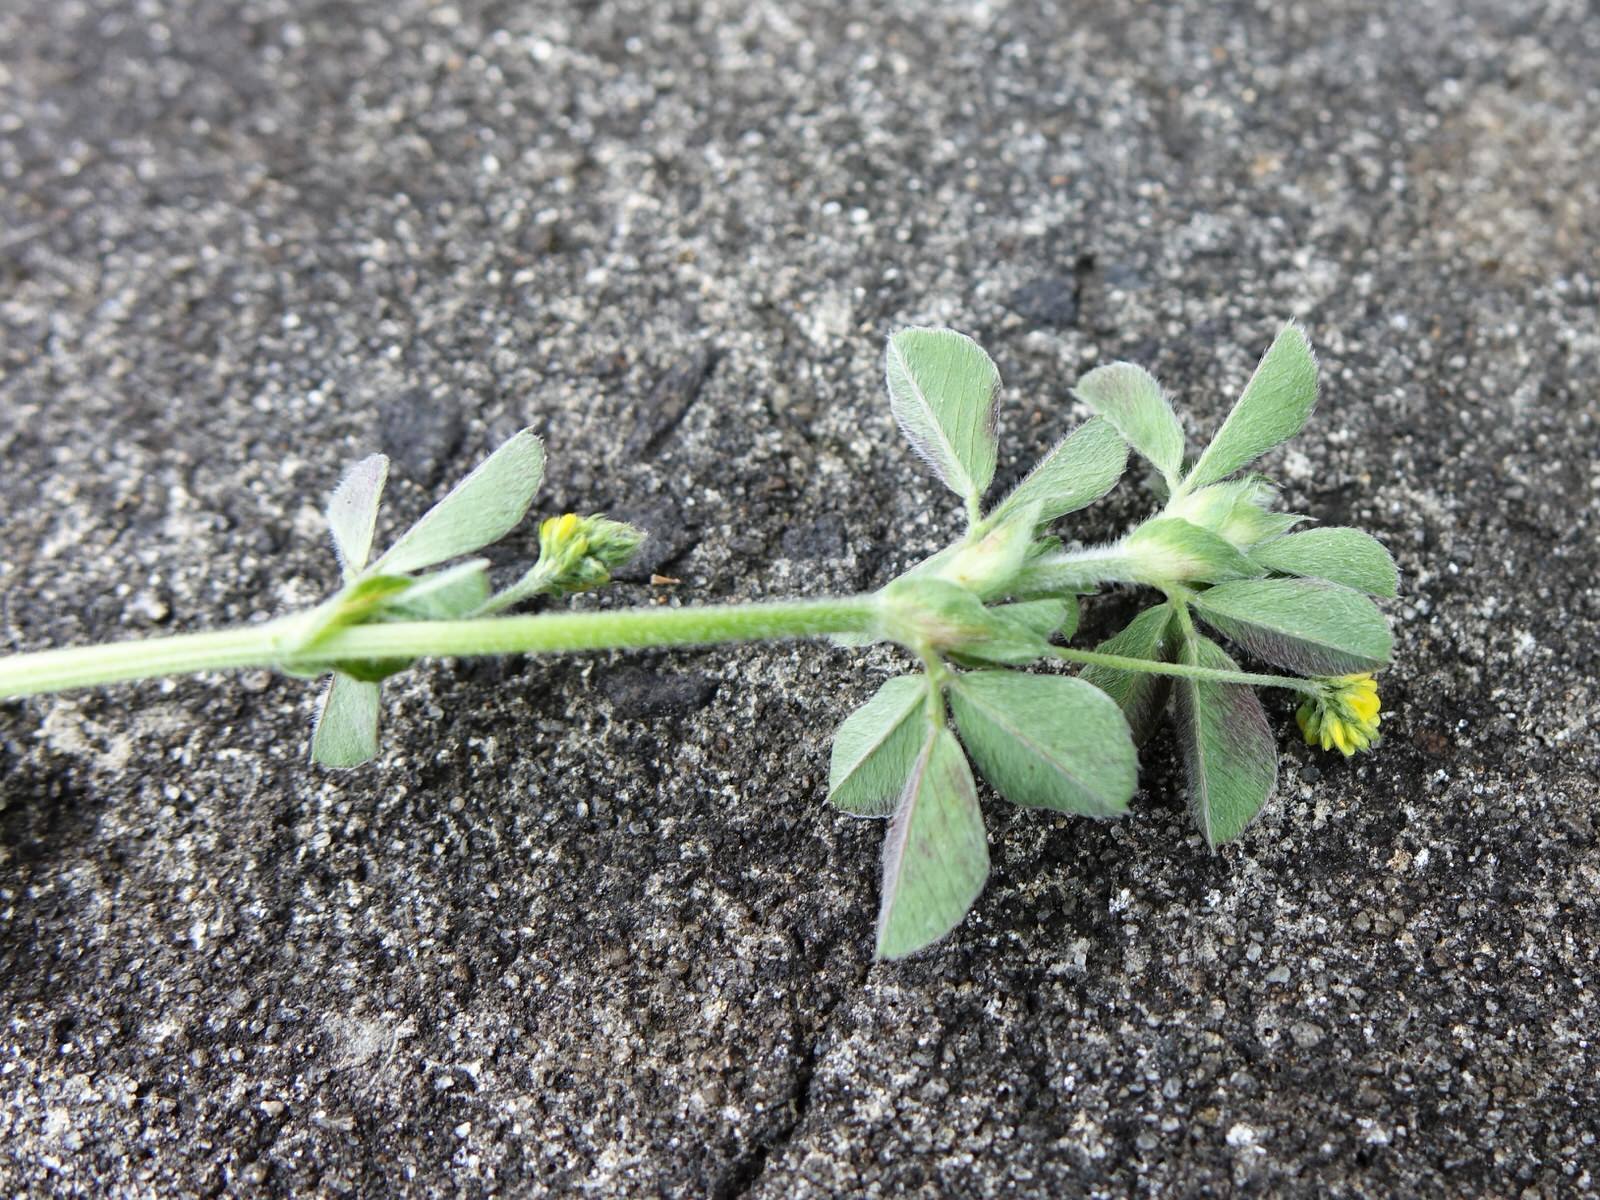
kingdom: Plantae
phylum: Tracheophyta
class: Magnoliopsida
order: Fabales
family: Fabaceae
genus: Medicago
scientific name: Medicago lupulina
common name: Black medick
